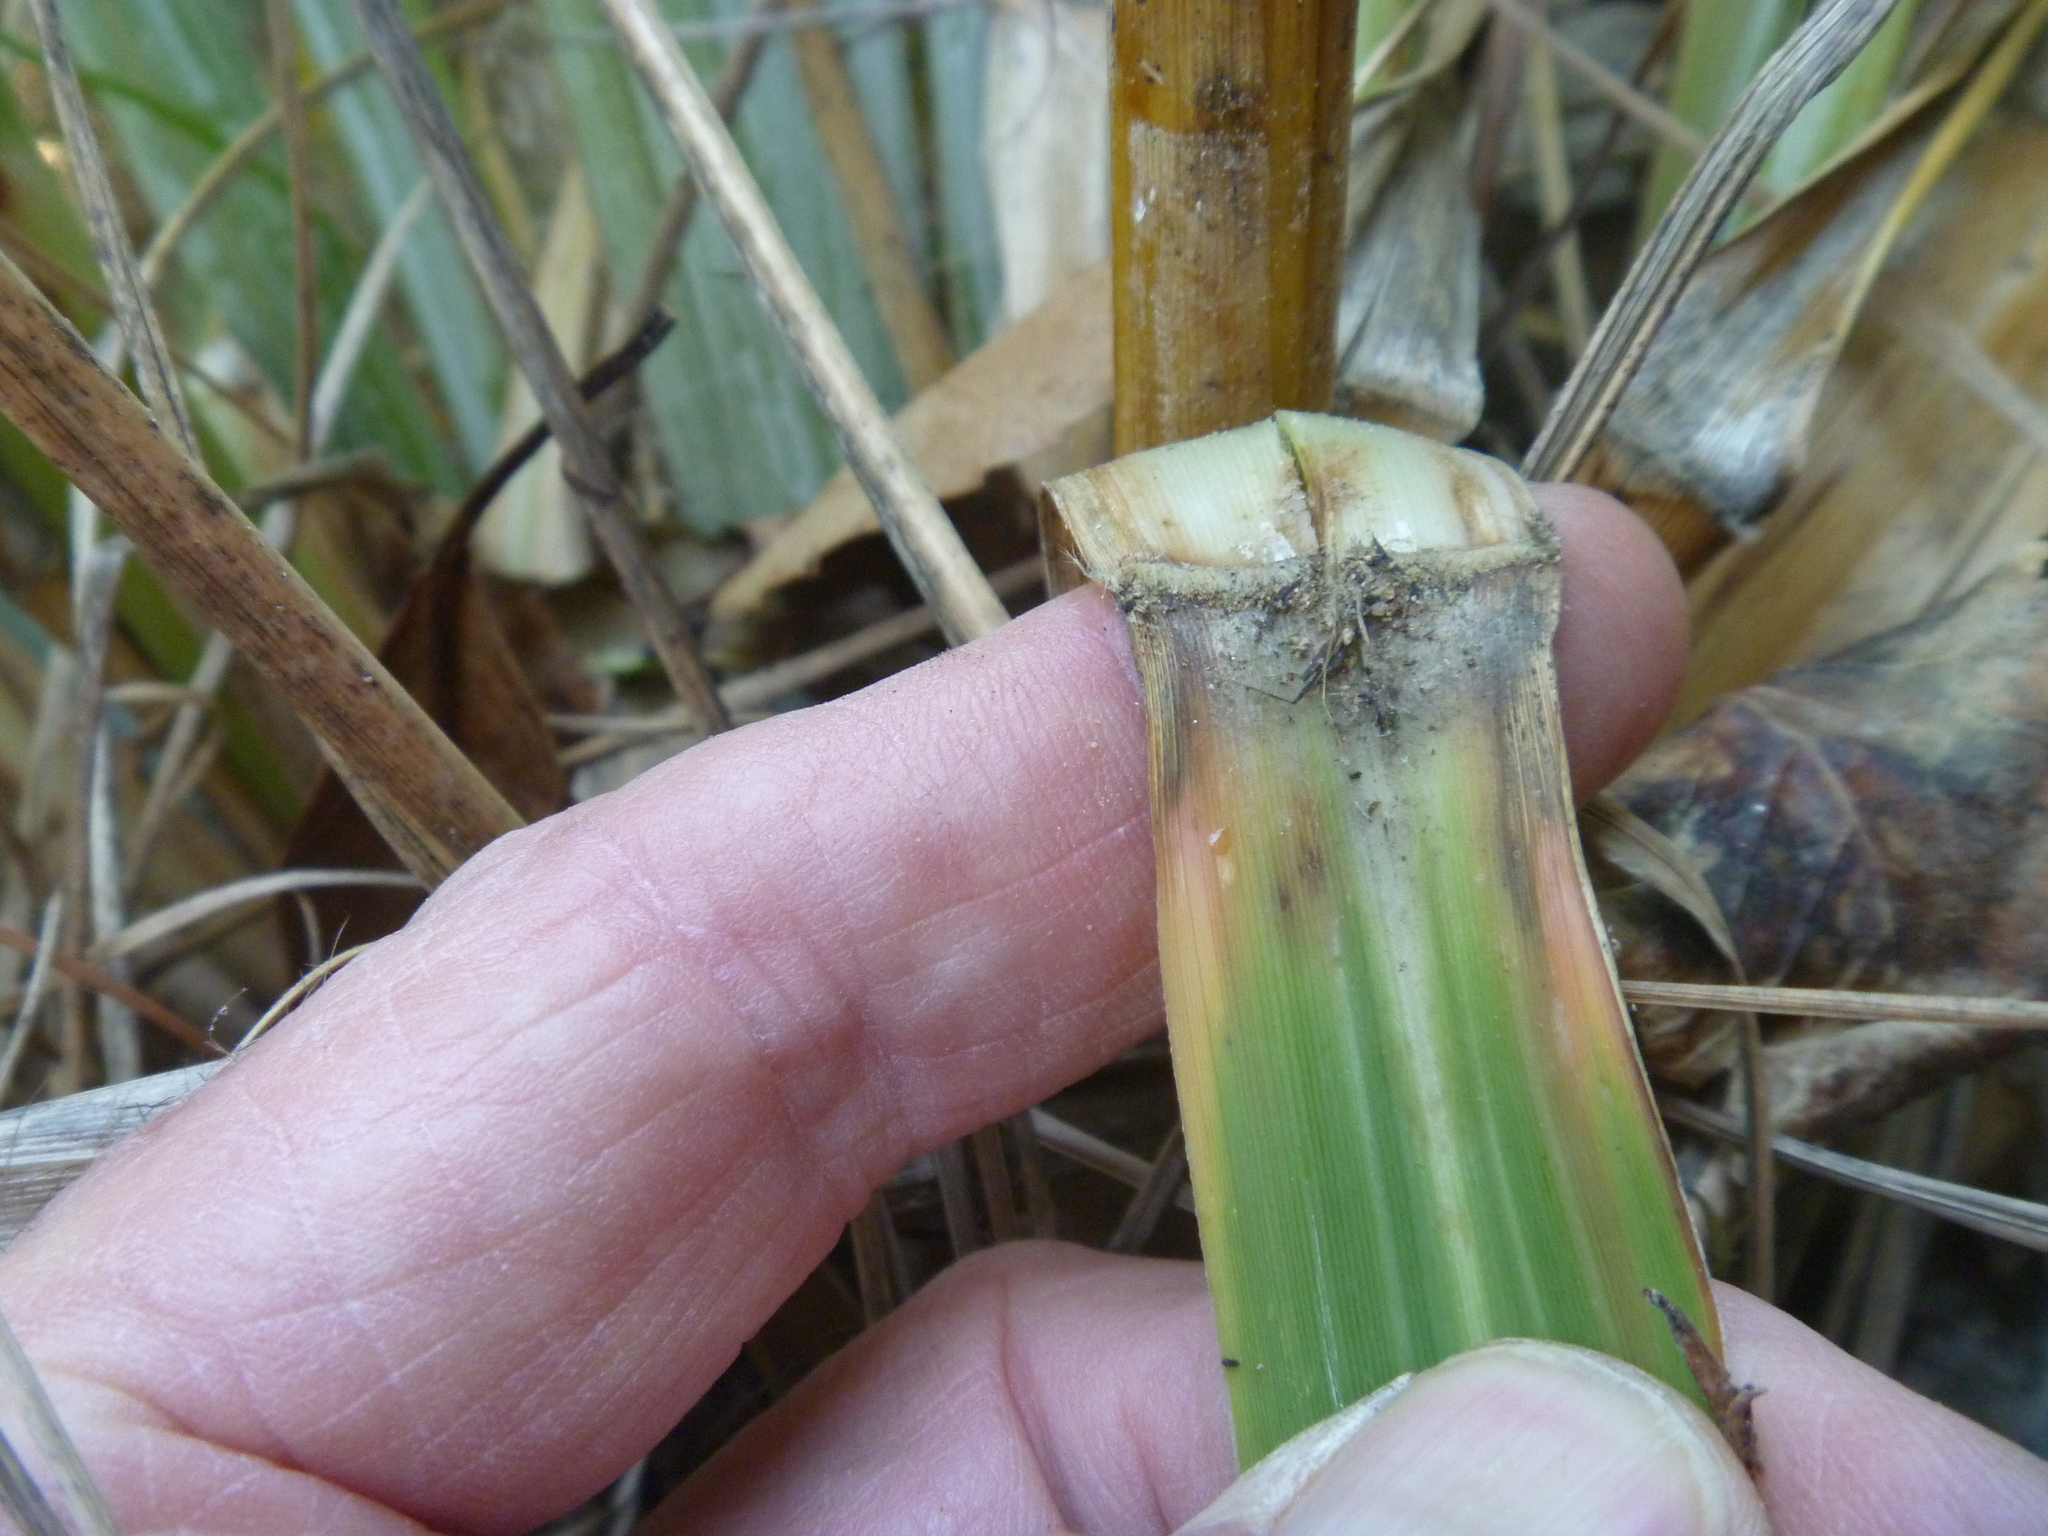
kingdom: Plantae
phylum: Tracheophyta
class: Liliopsida
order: Poales
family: Poaceae
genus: Austroderia
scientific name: Austroderia fulvida
